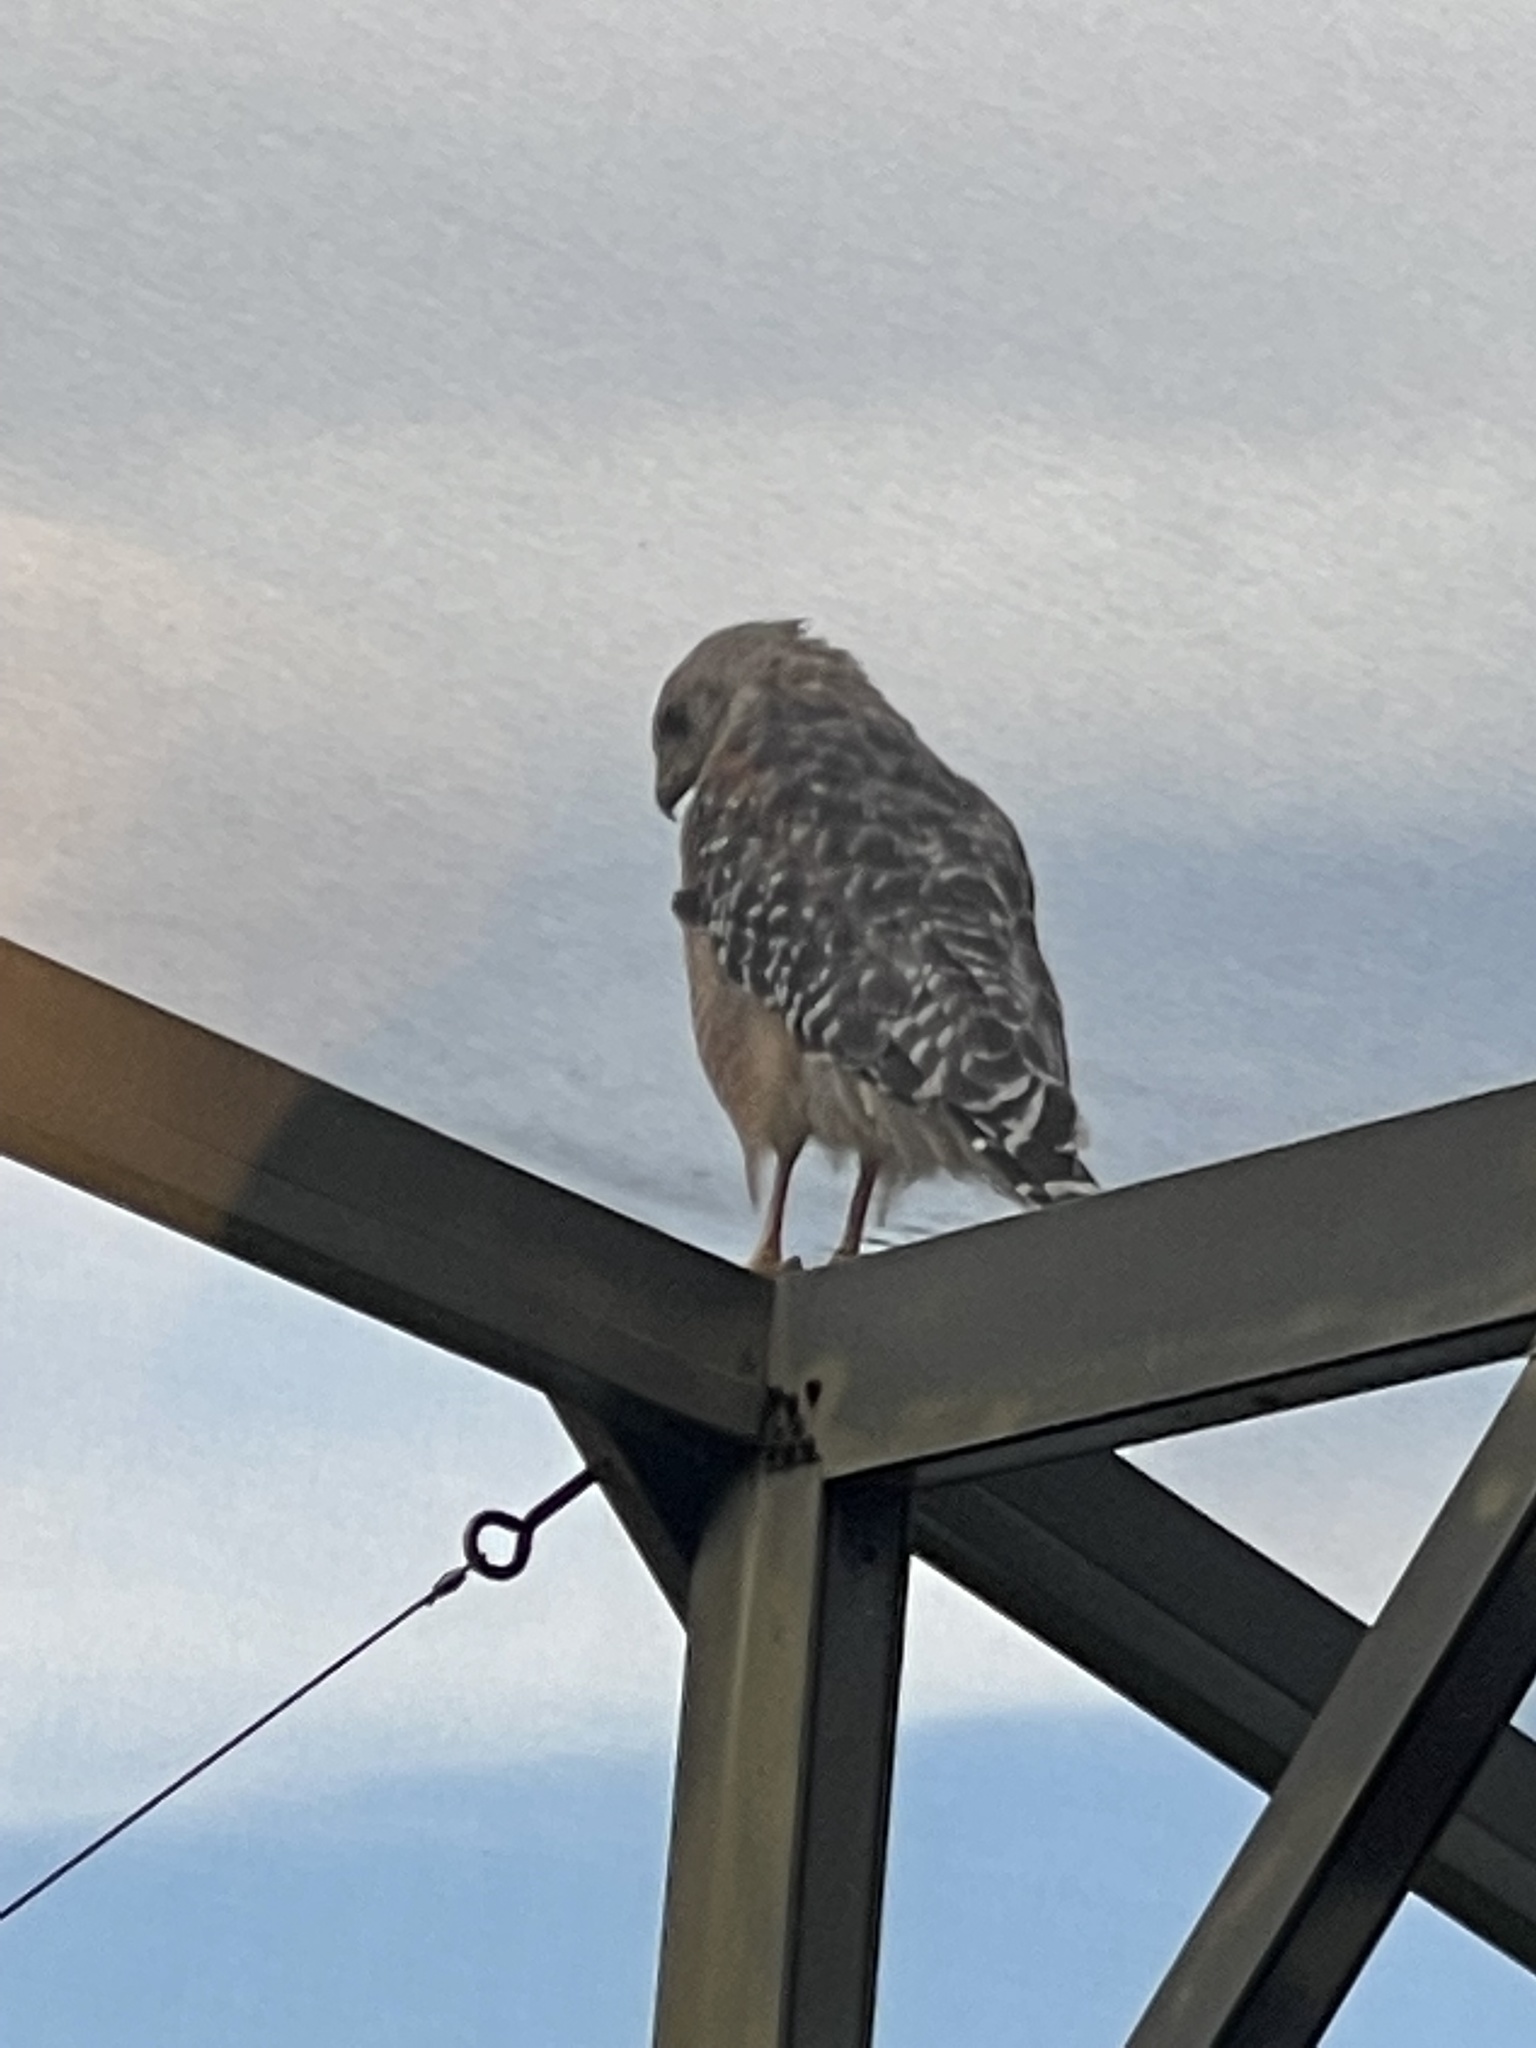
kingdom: Animalia
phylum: Chordata
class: Aves
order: Accipitriformes
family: Accipitridae
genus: Buteo
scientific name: Buteo lineatus
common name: Red-shouldered hawk
